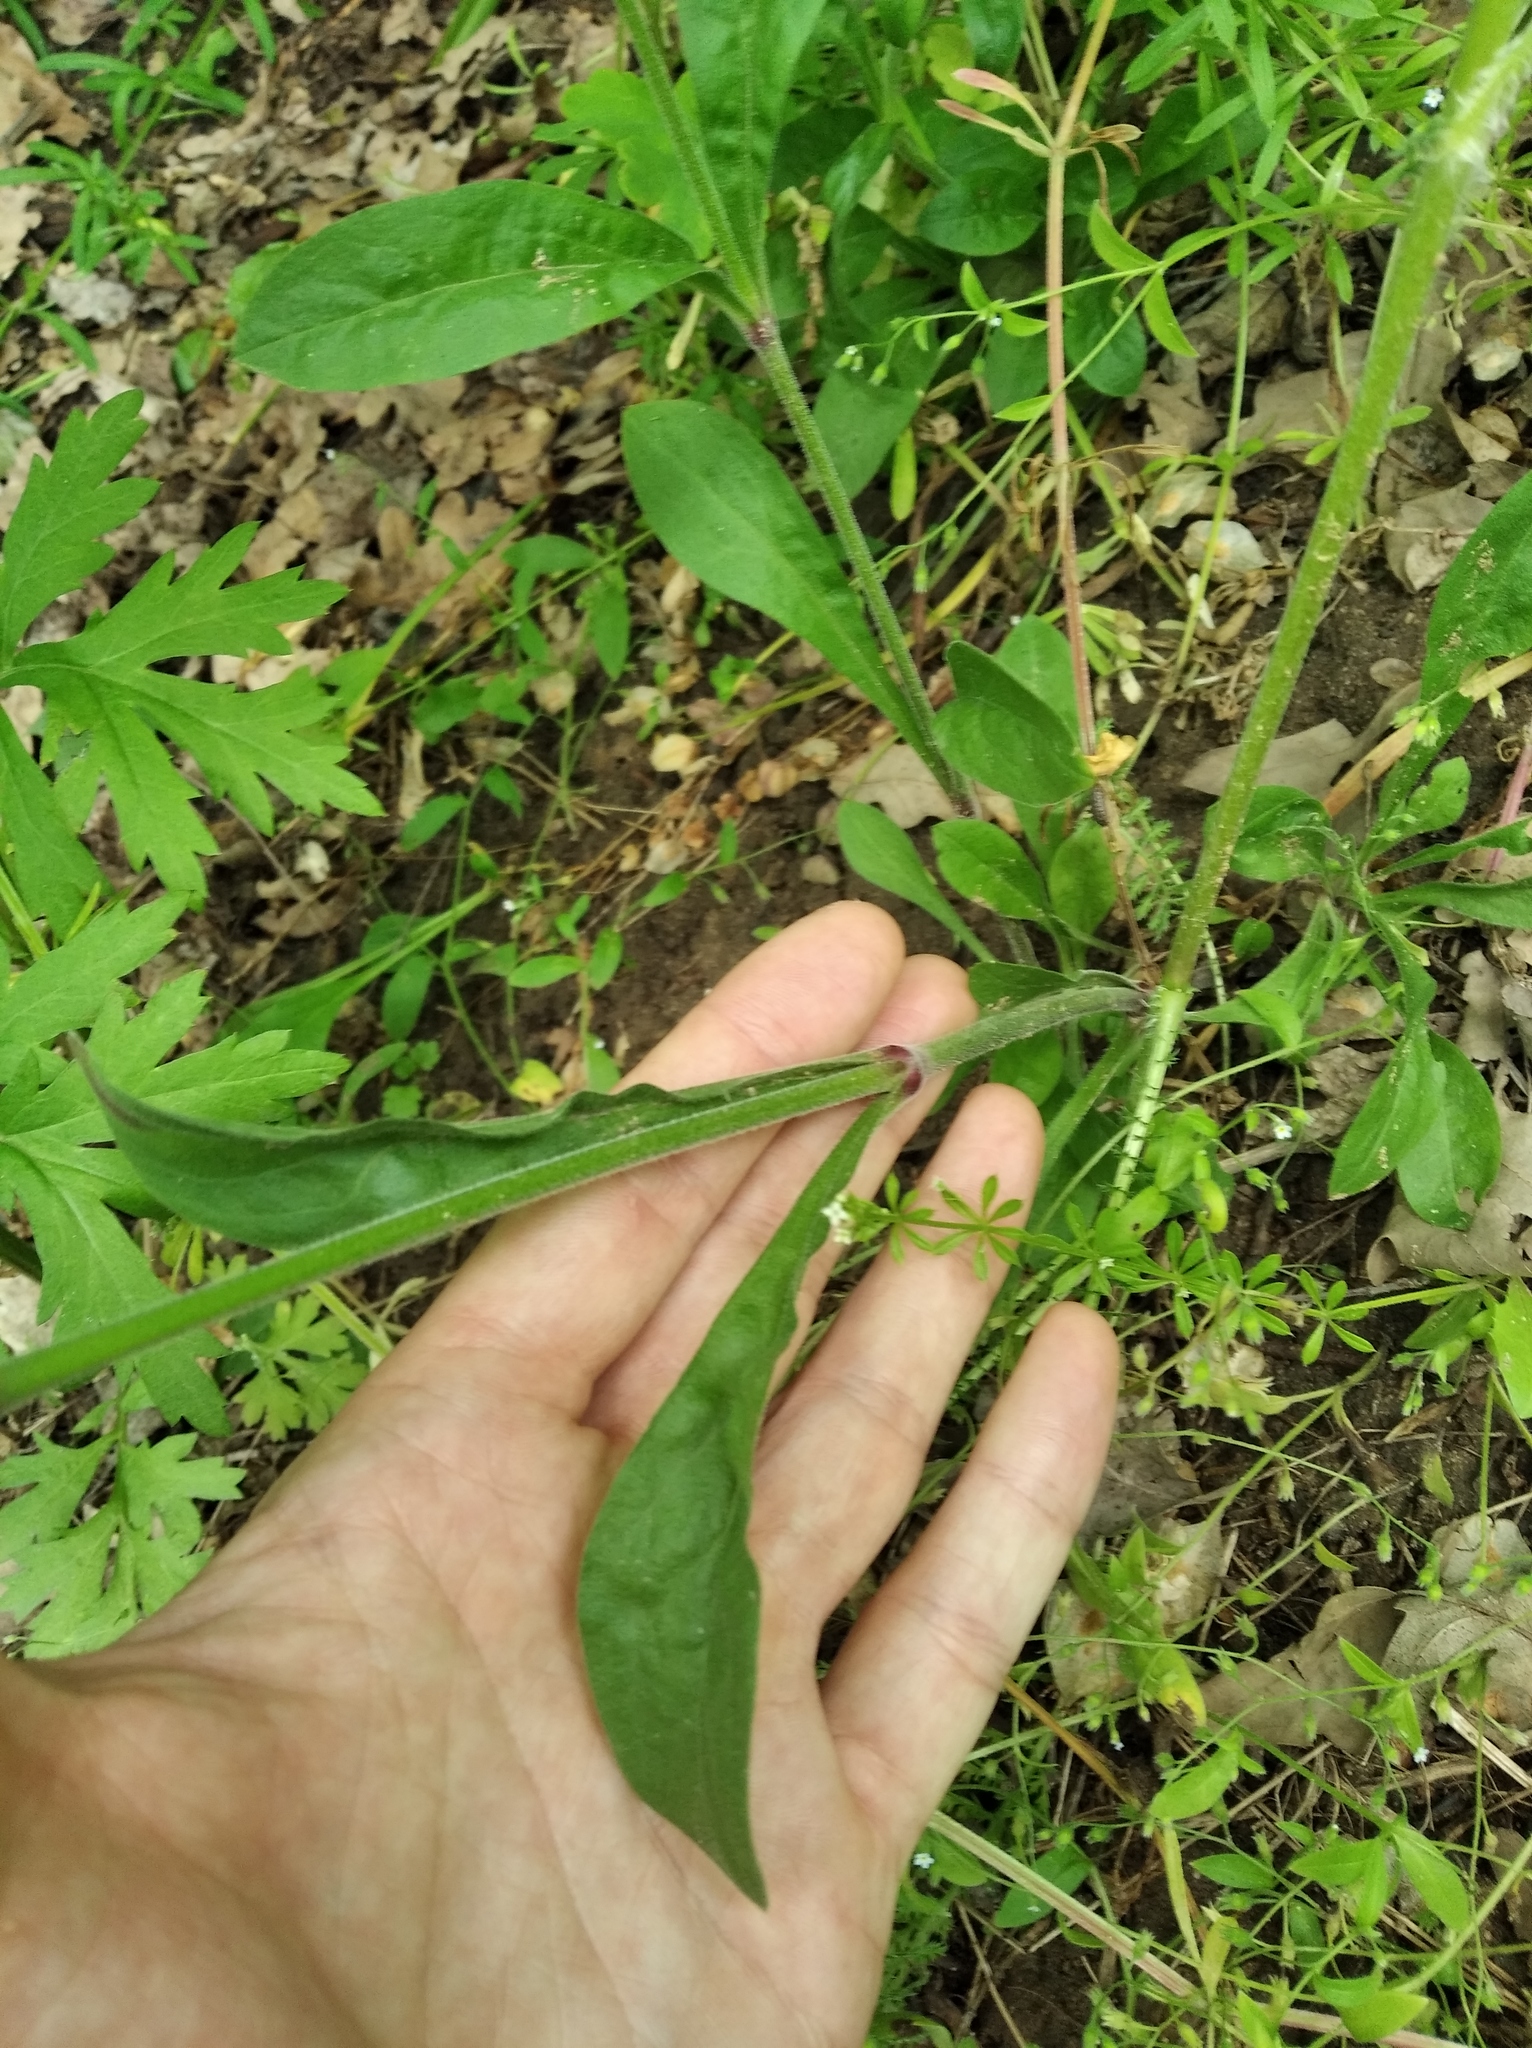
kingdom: Plantae
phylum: Tracheophyta
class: Magnoliopsida
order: Caryophyllales
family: Caryophyllaceae
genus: Silene
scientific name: Silene nutans
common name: Nottingham catchfly
